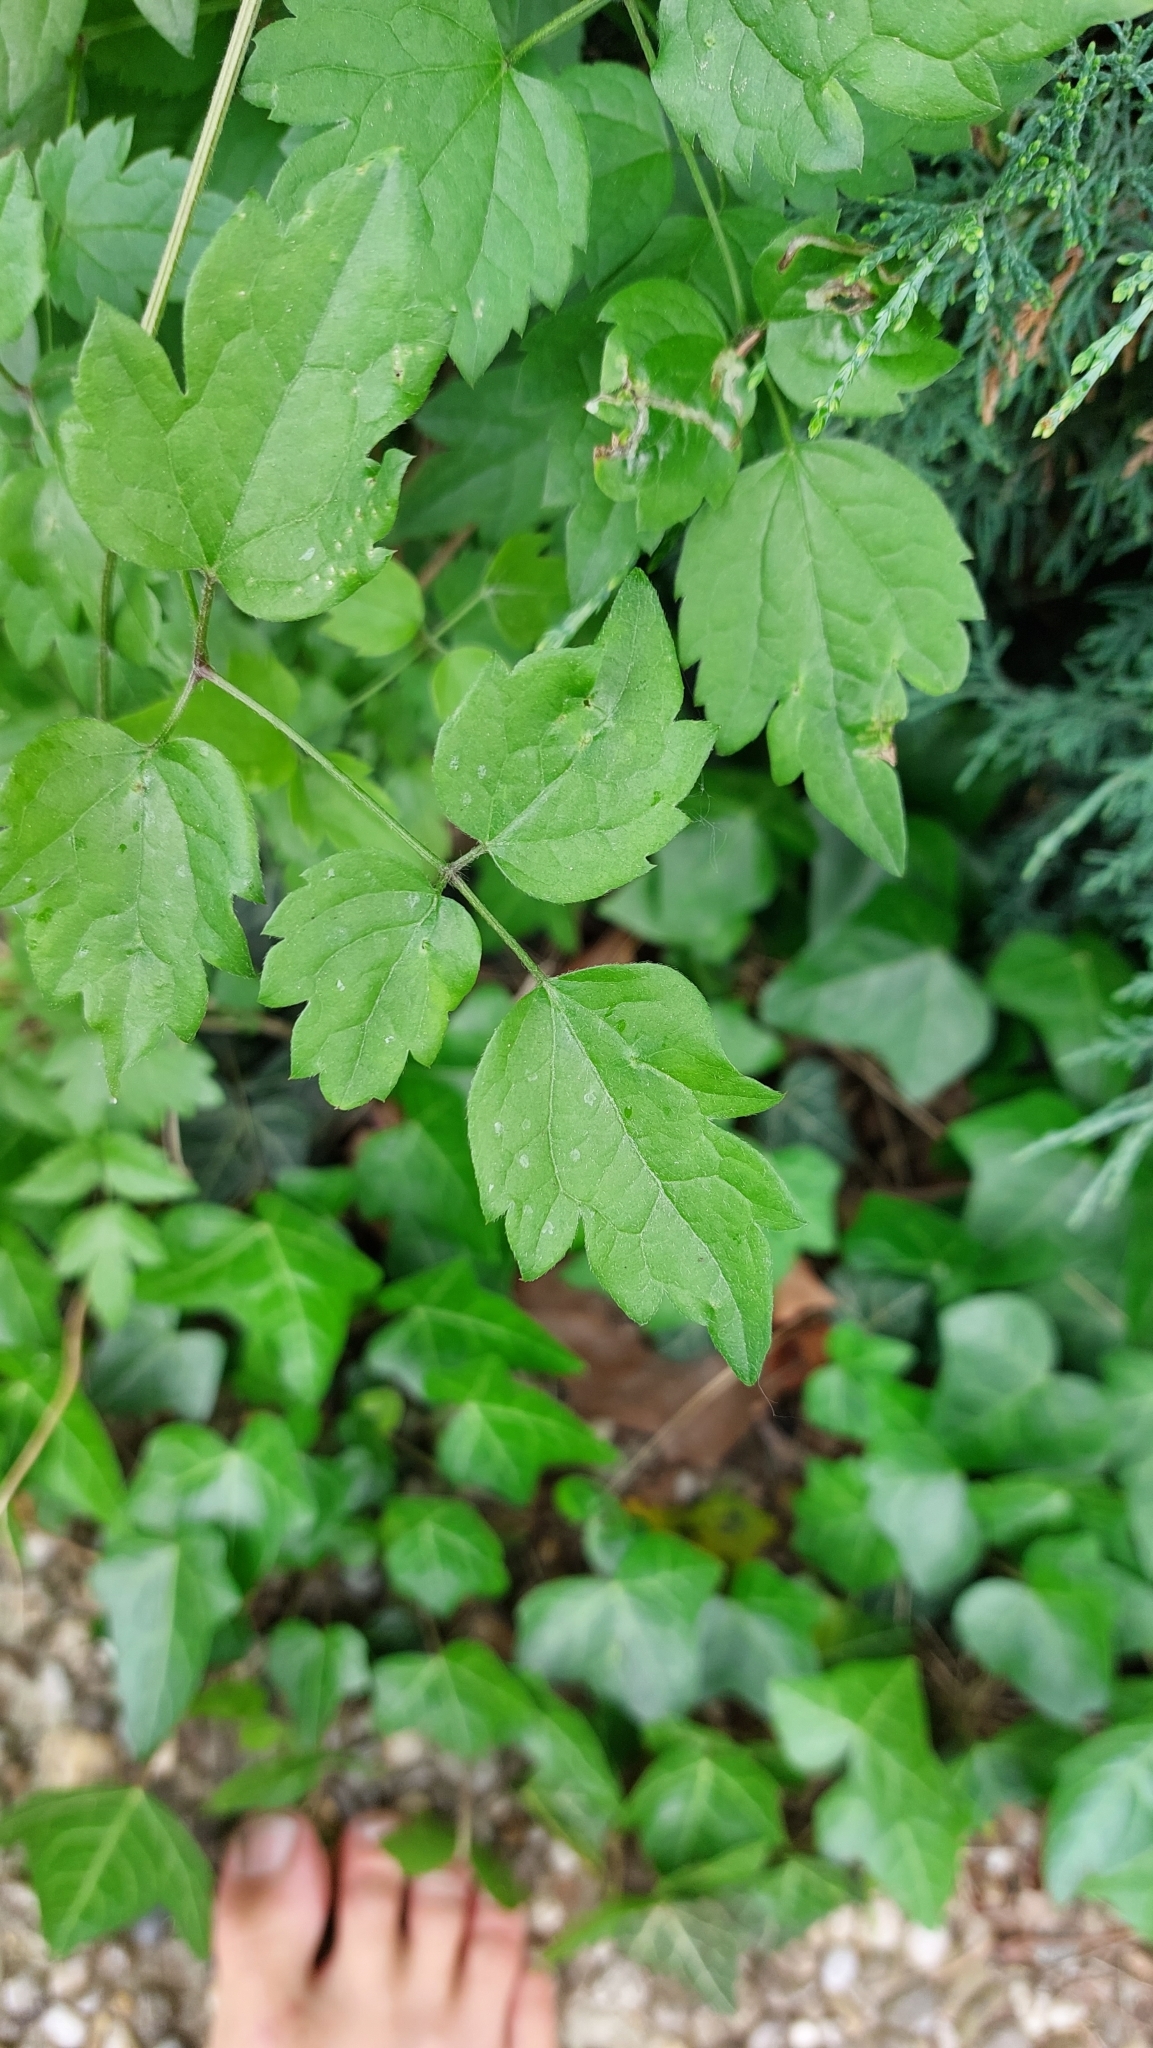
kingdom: Plantae
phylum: Tracheophyta
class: Magnoliopsida
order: Ranunculales
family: Ranunculaceae
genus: Clematis
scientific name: Clematis vitalba
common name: Evergreen clematis
